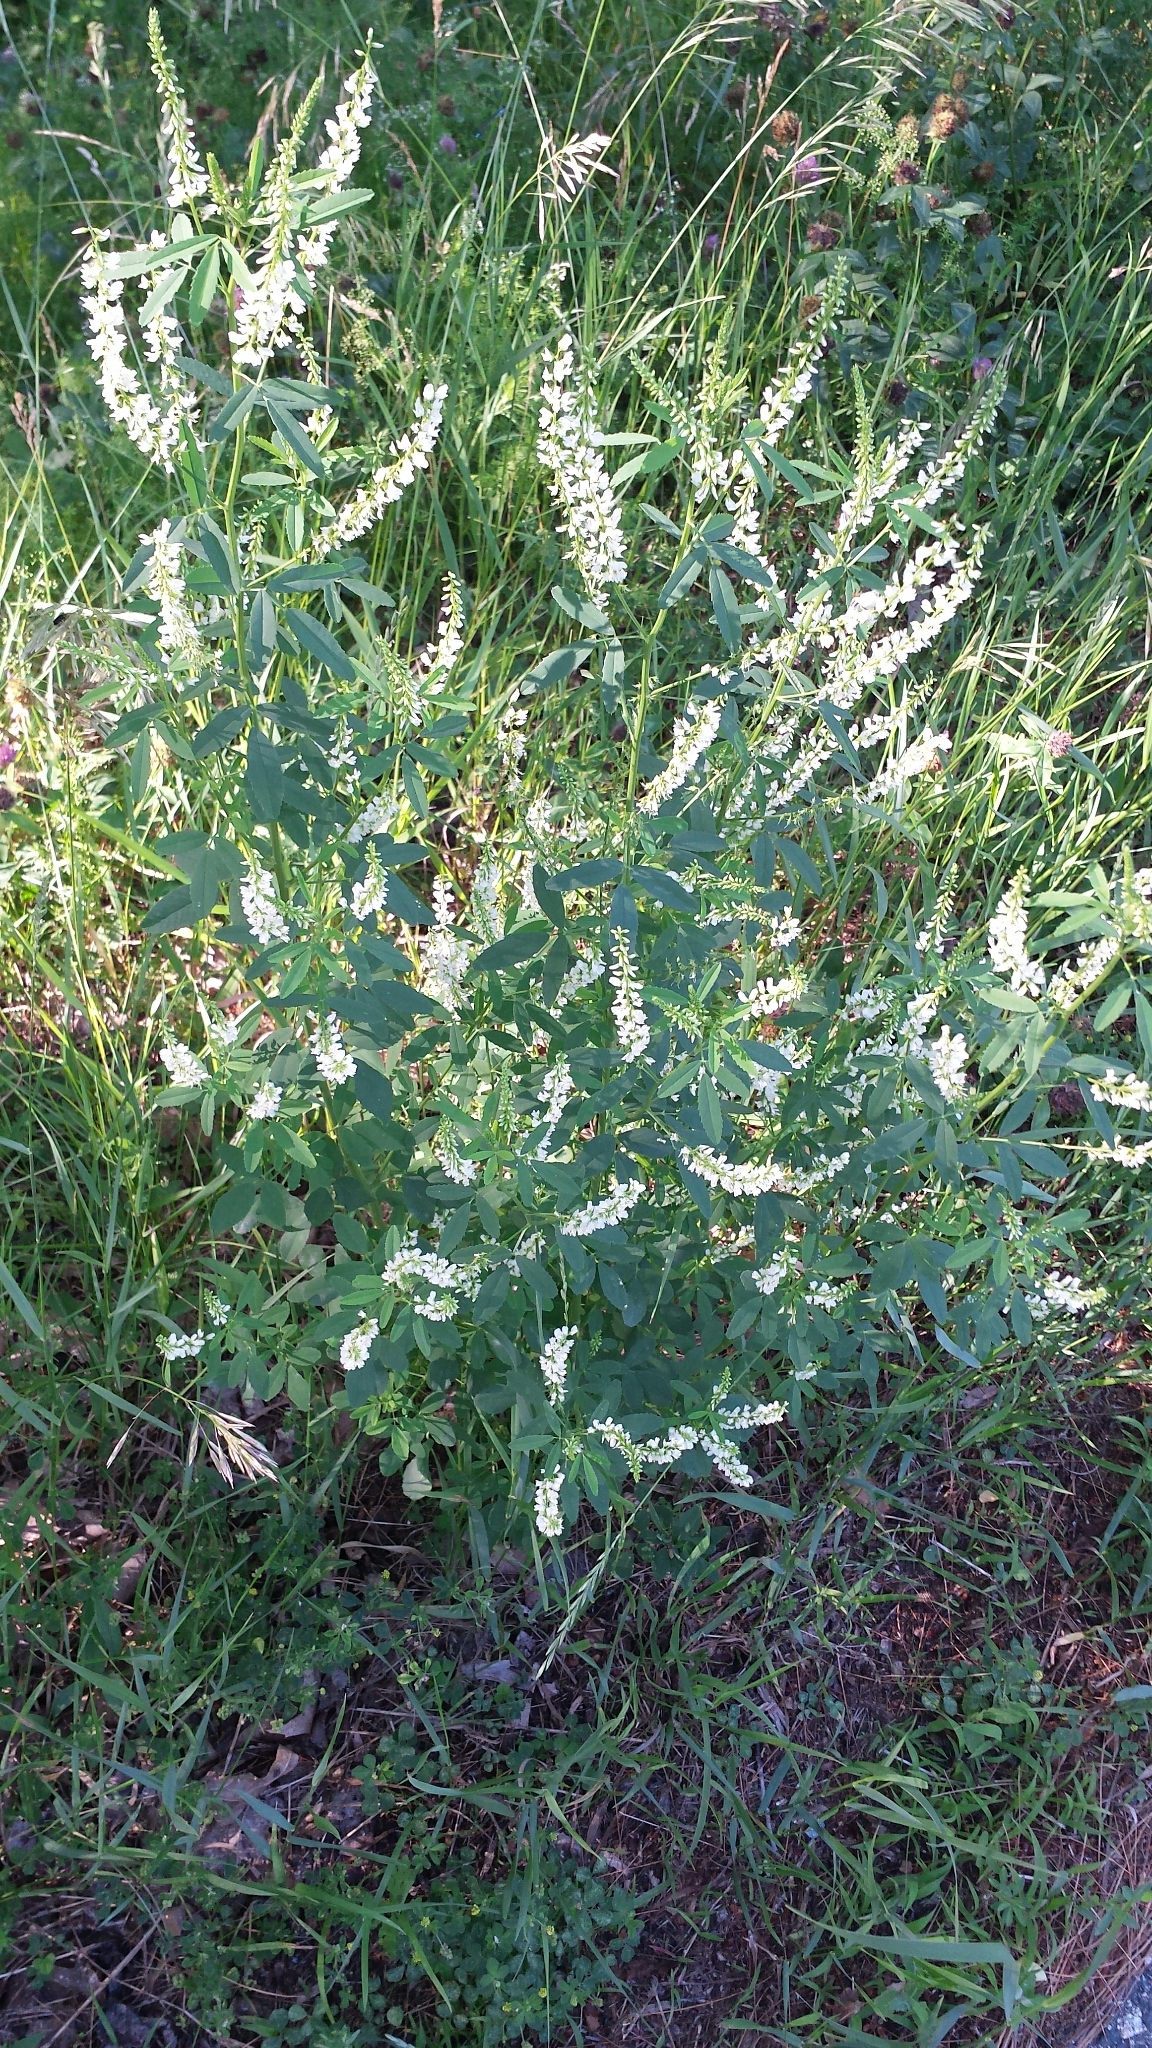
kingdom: Plantae
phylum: Tracheophyta
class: Magnoliopsida
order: Fabales
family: Fabaceae
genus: Melilotus
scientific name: Melilotus albus
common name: White melilot
